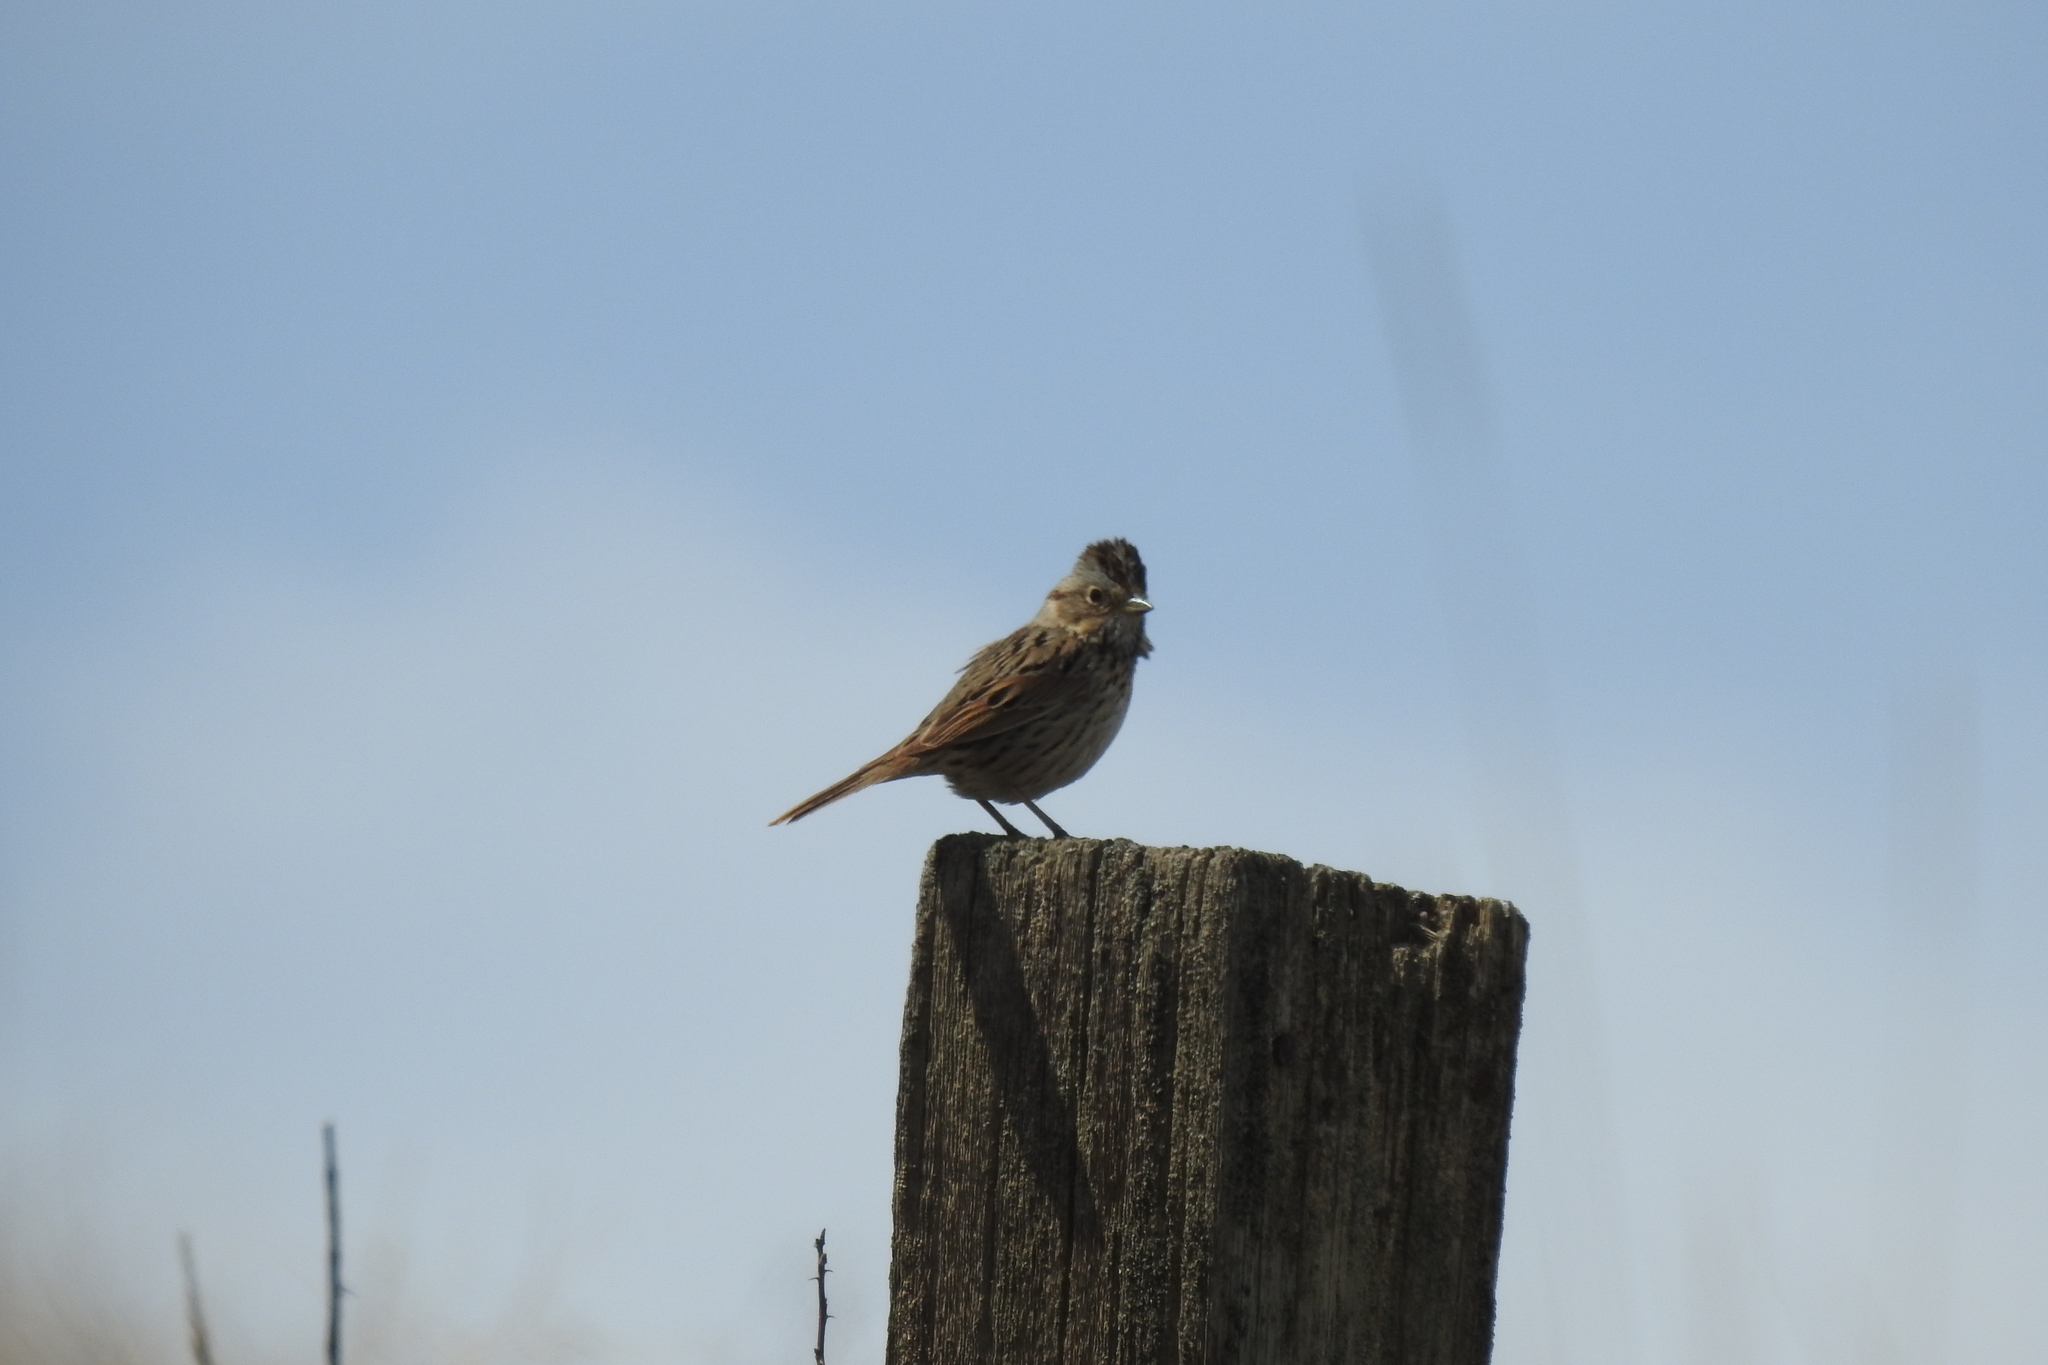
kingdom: Animalia
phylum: Chordata
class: Aves
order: Passeriformes
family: Passerellidae
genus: Melospiza
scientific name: Melospiza lincolnii
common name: Lincoln's sparrow
